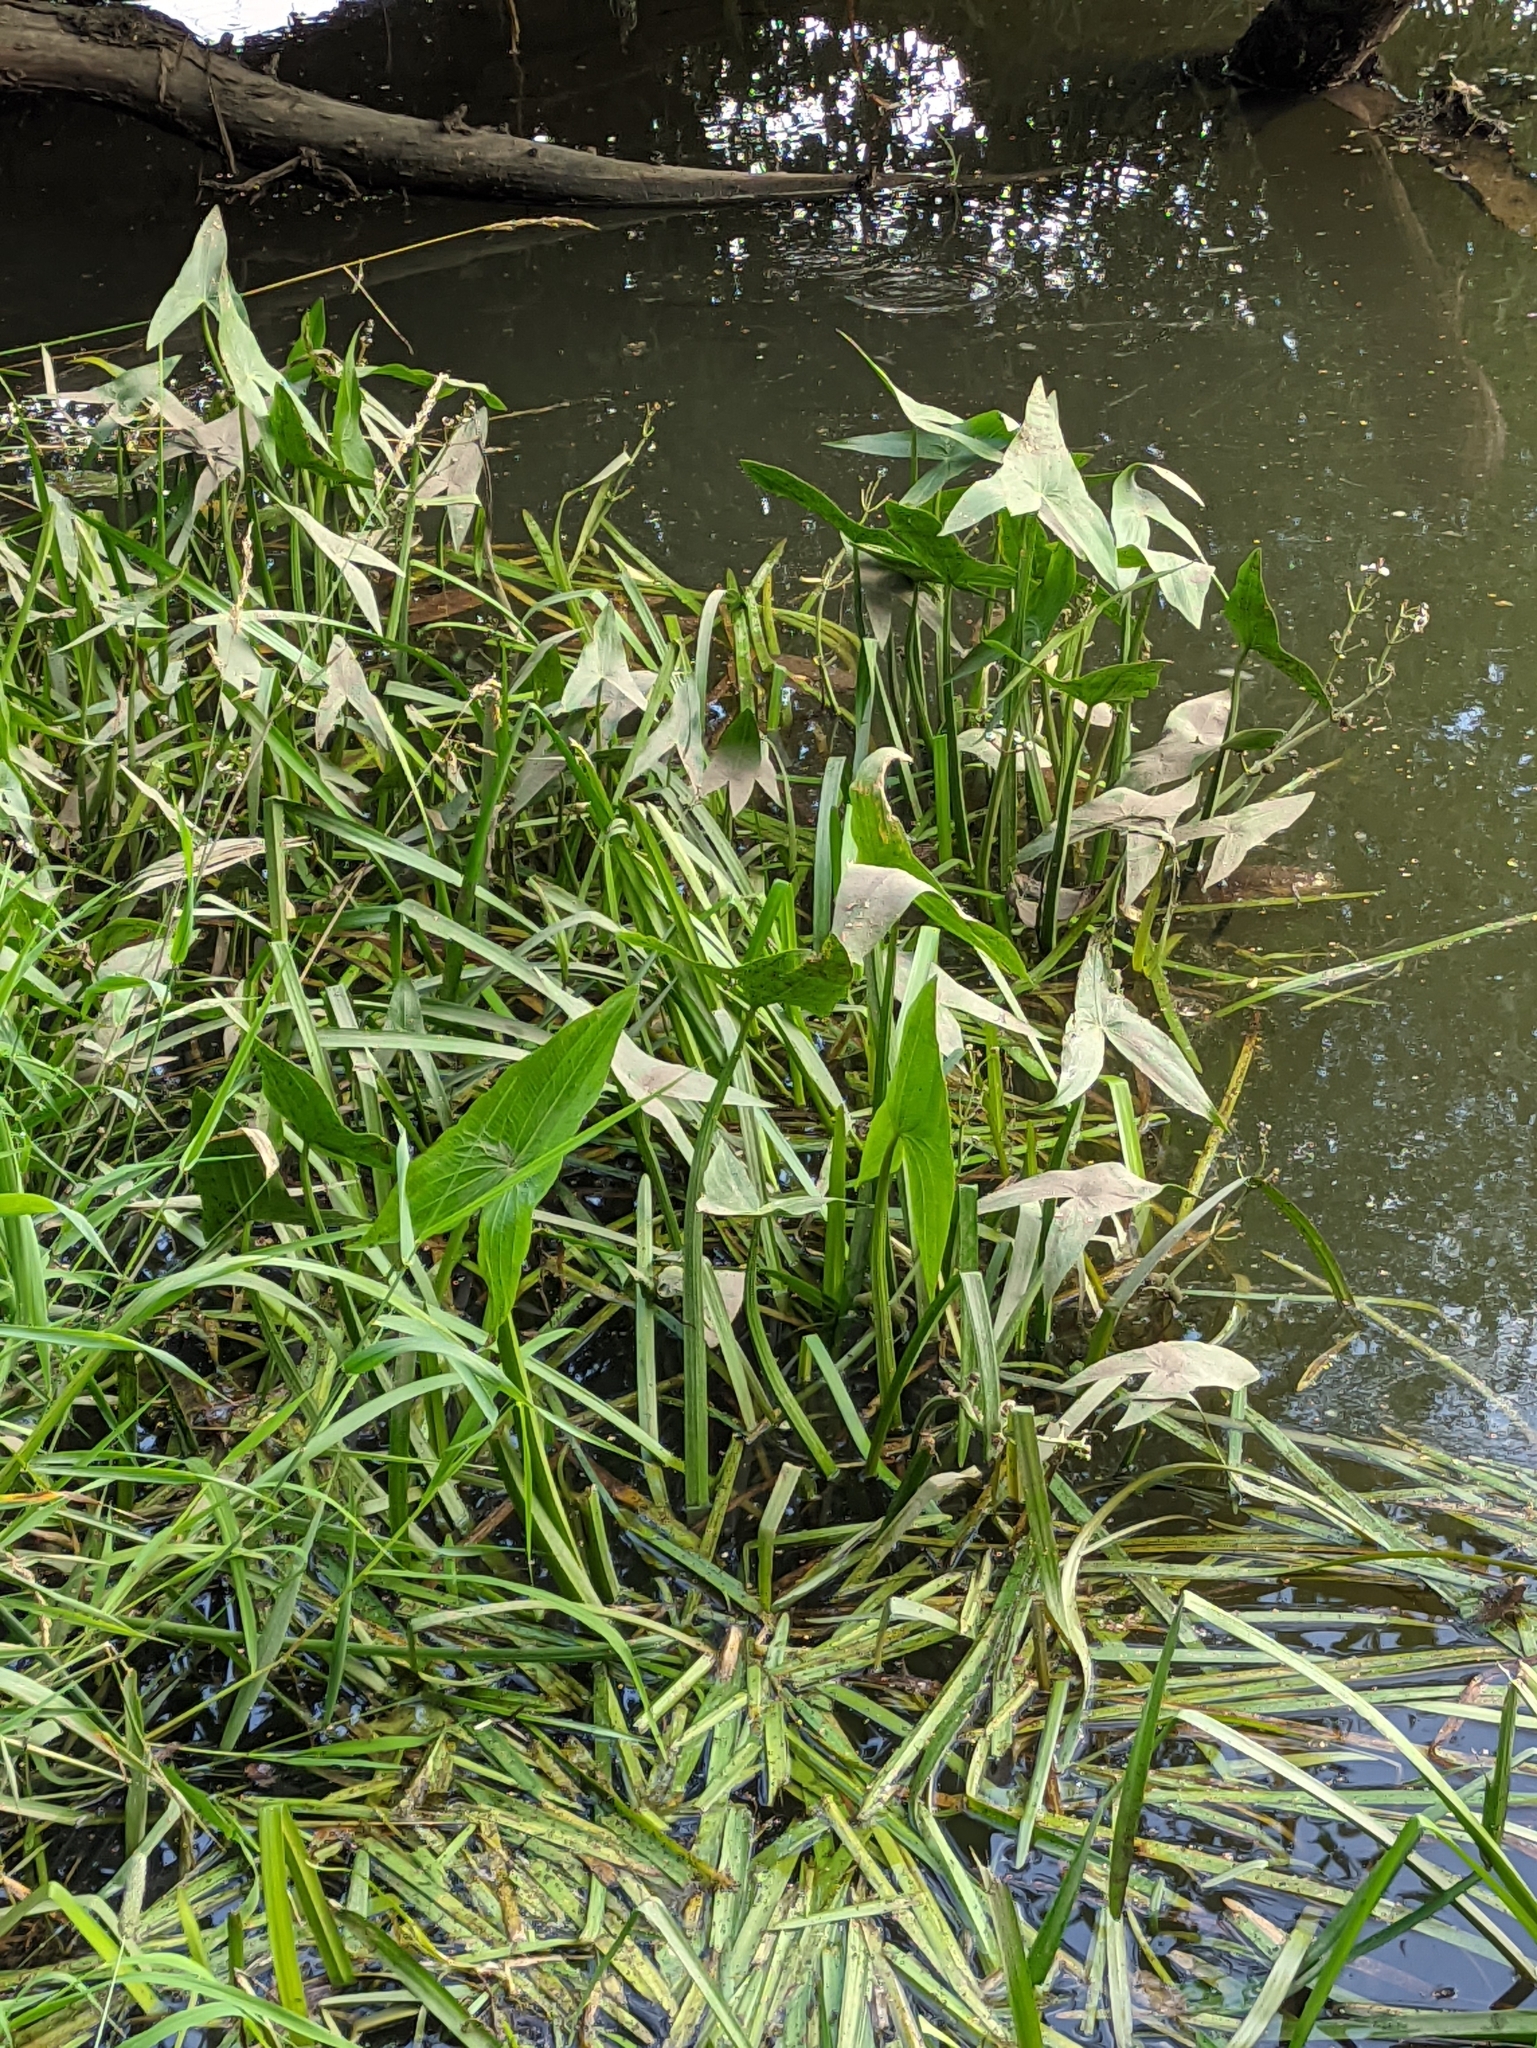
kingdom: Plantae
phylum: Tracheophyta
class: Liliopsida
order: Alismatales
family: Alismataceae
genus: Sagittaria
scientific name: Sagittaria sagittifolia
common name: Arrowhead
